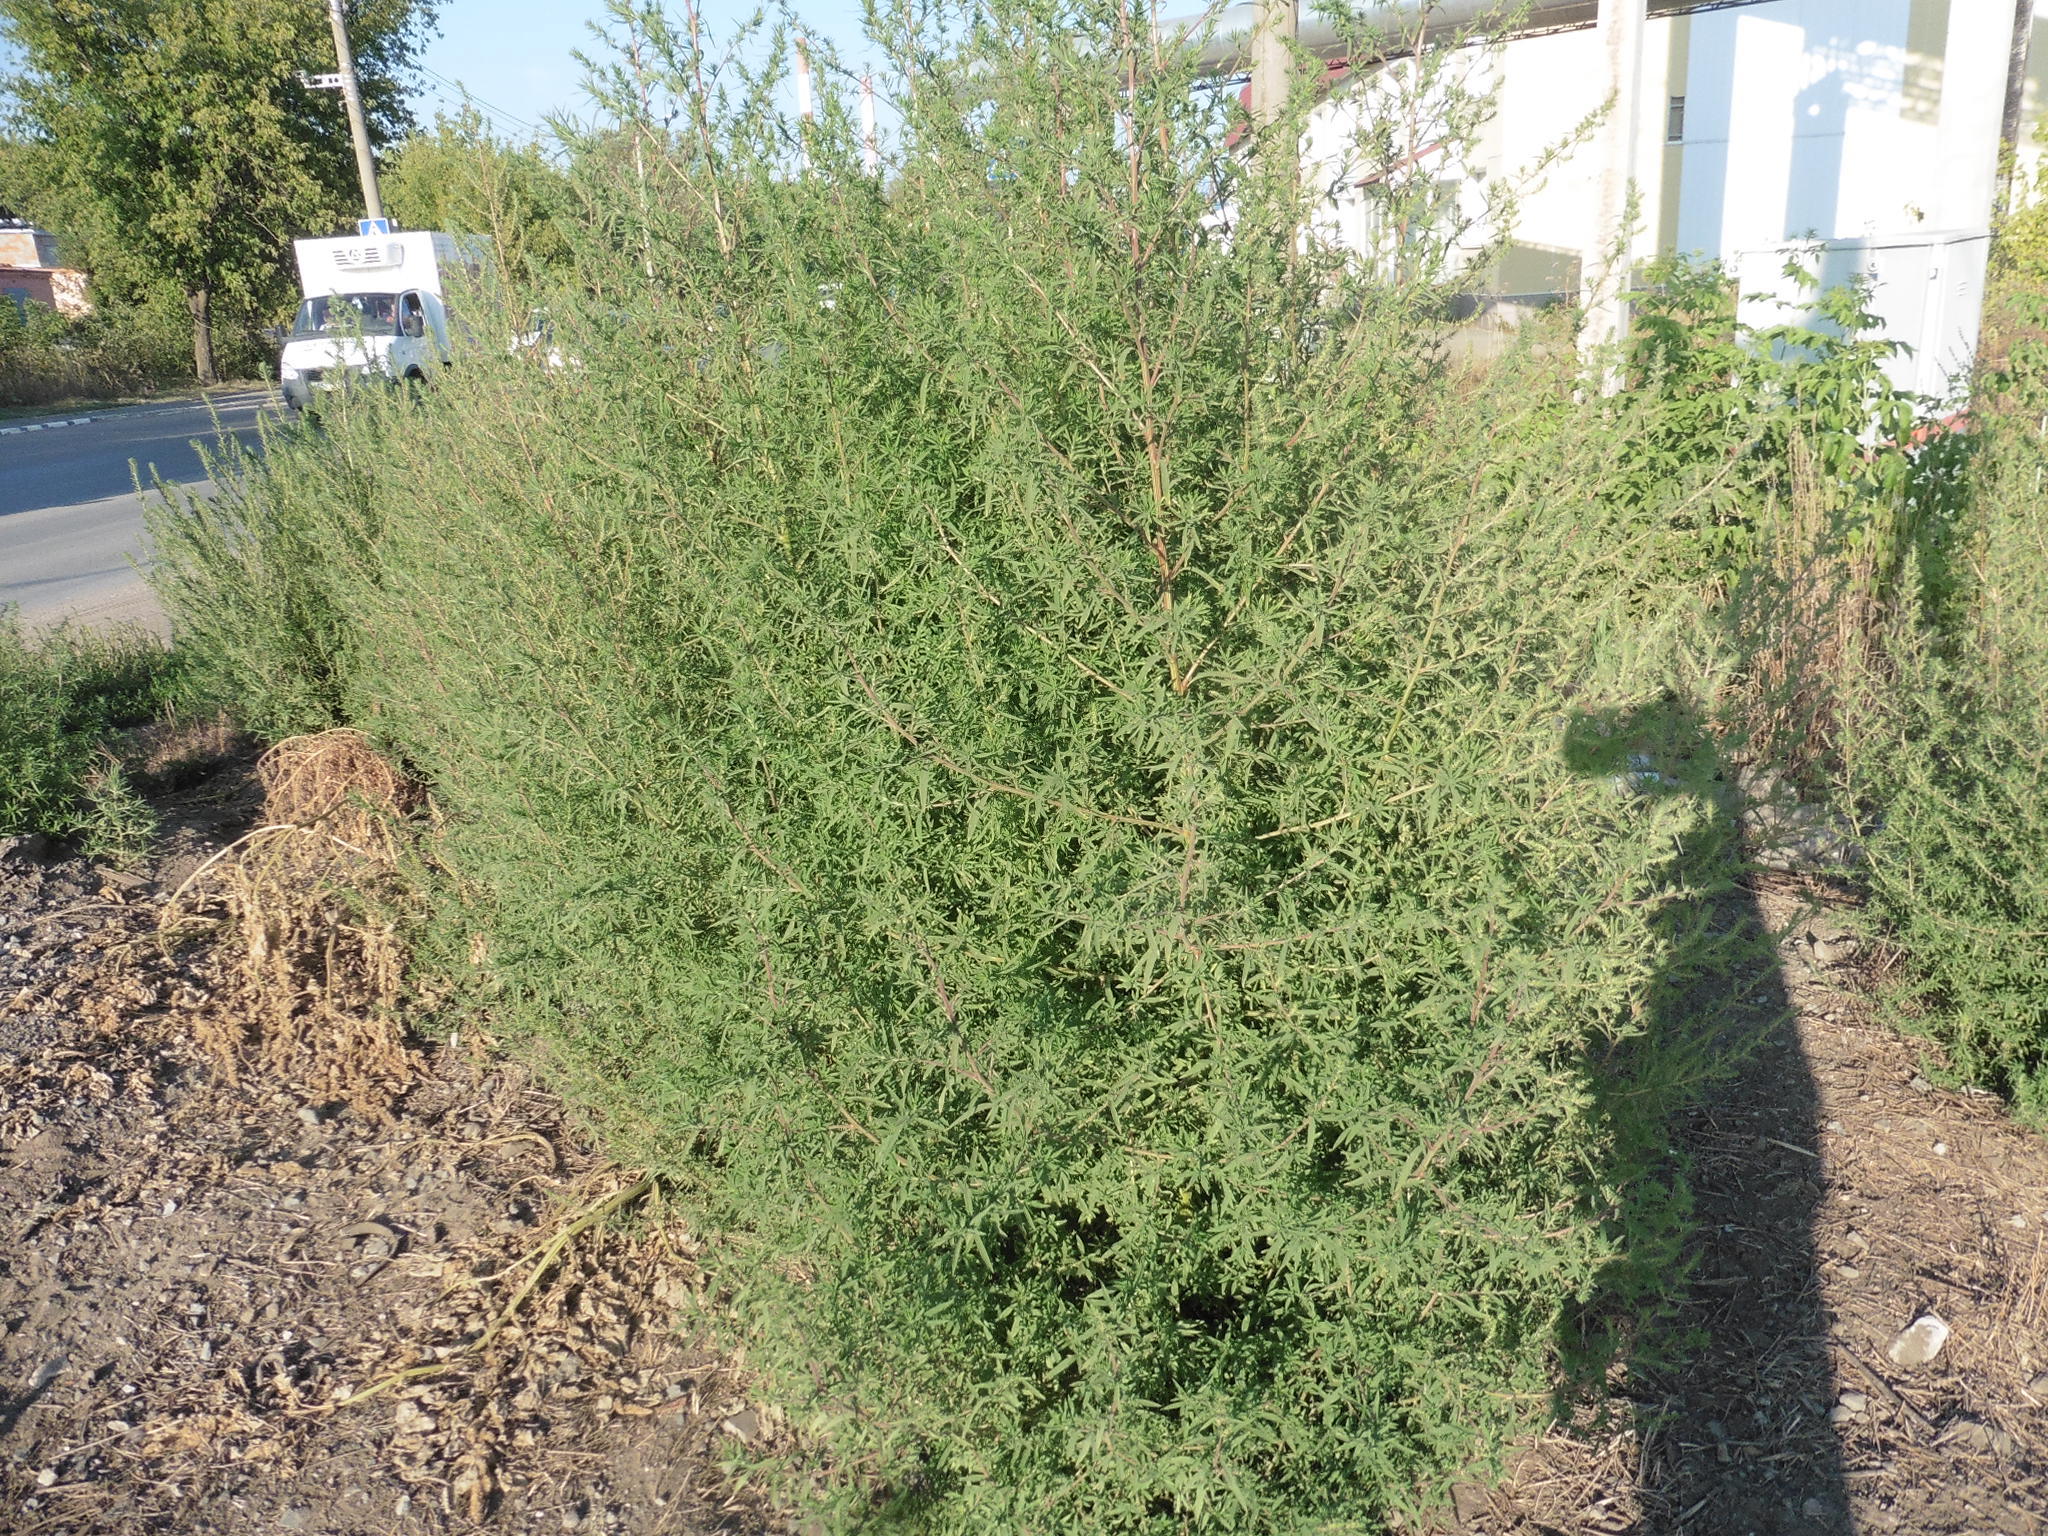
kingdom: Plantae
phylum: Tracheophyta
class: Magnoliopsida
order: Caryophyllales
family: Amaranthaceae
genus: Bassia
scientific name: Bassia scoparia
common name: Belvedere
